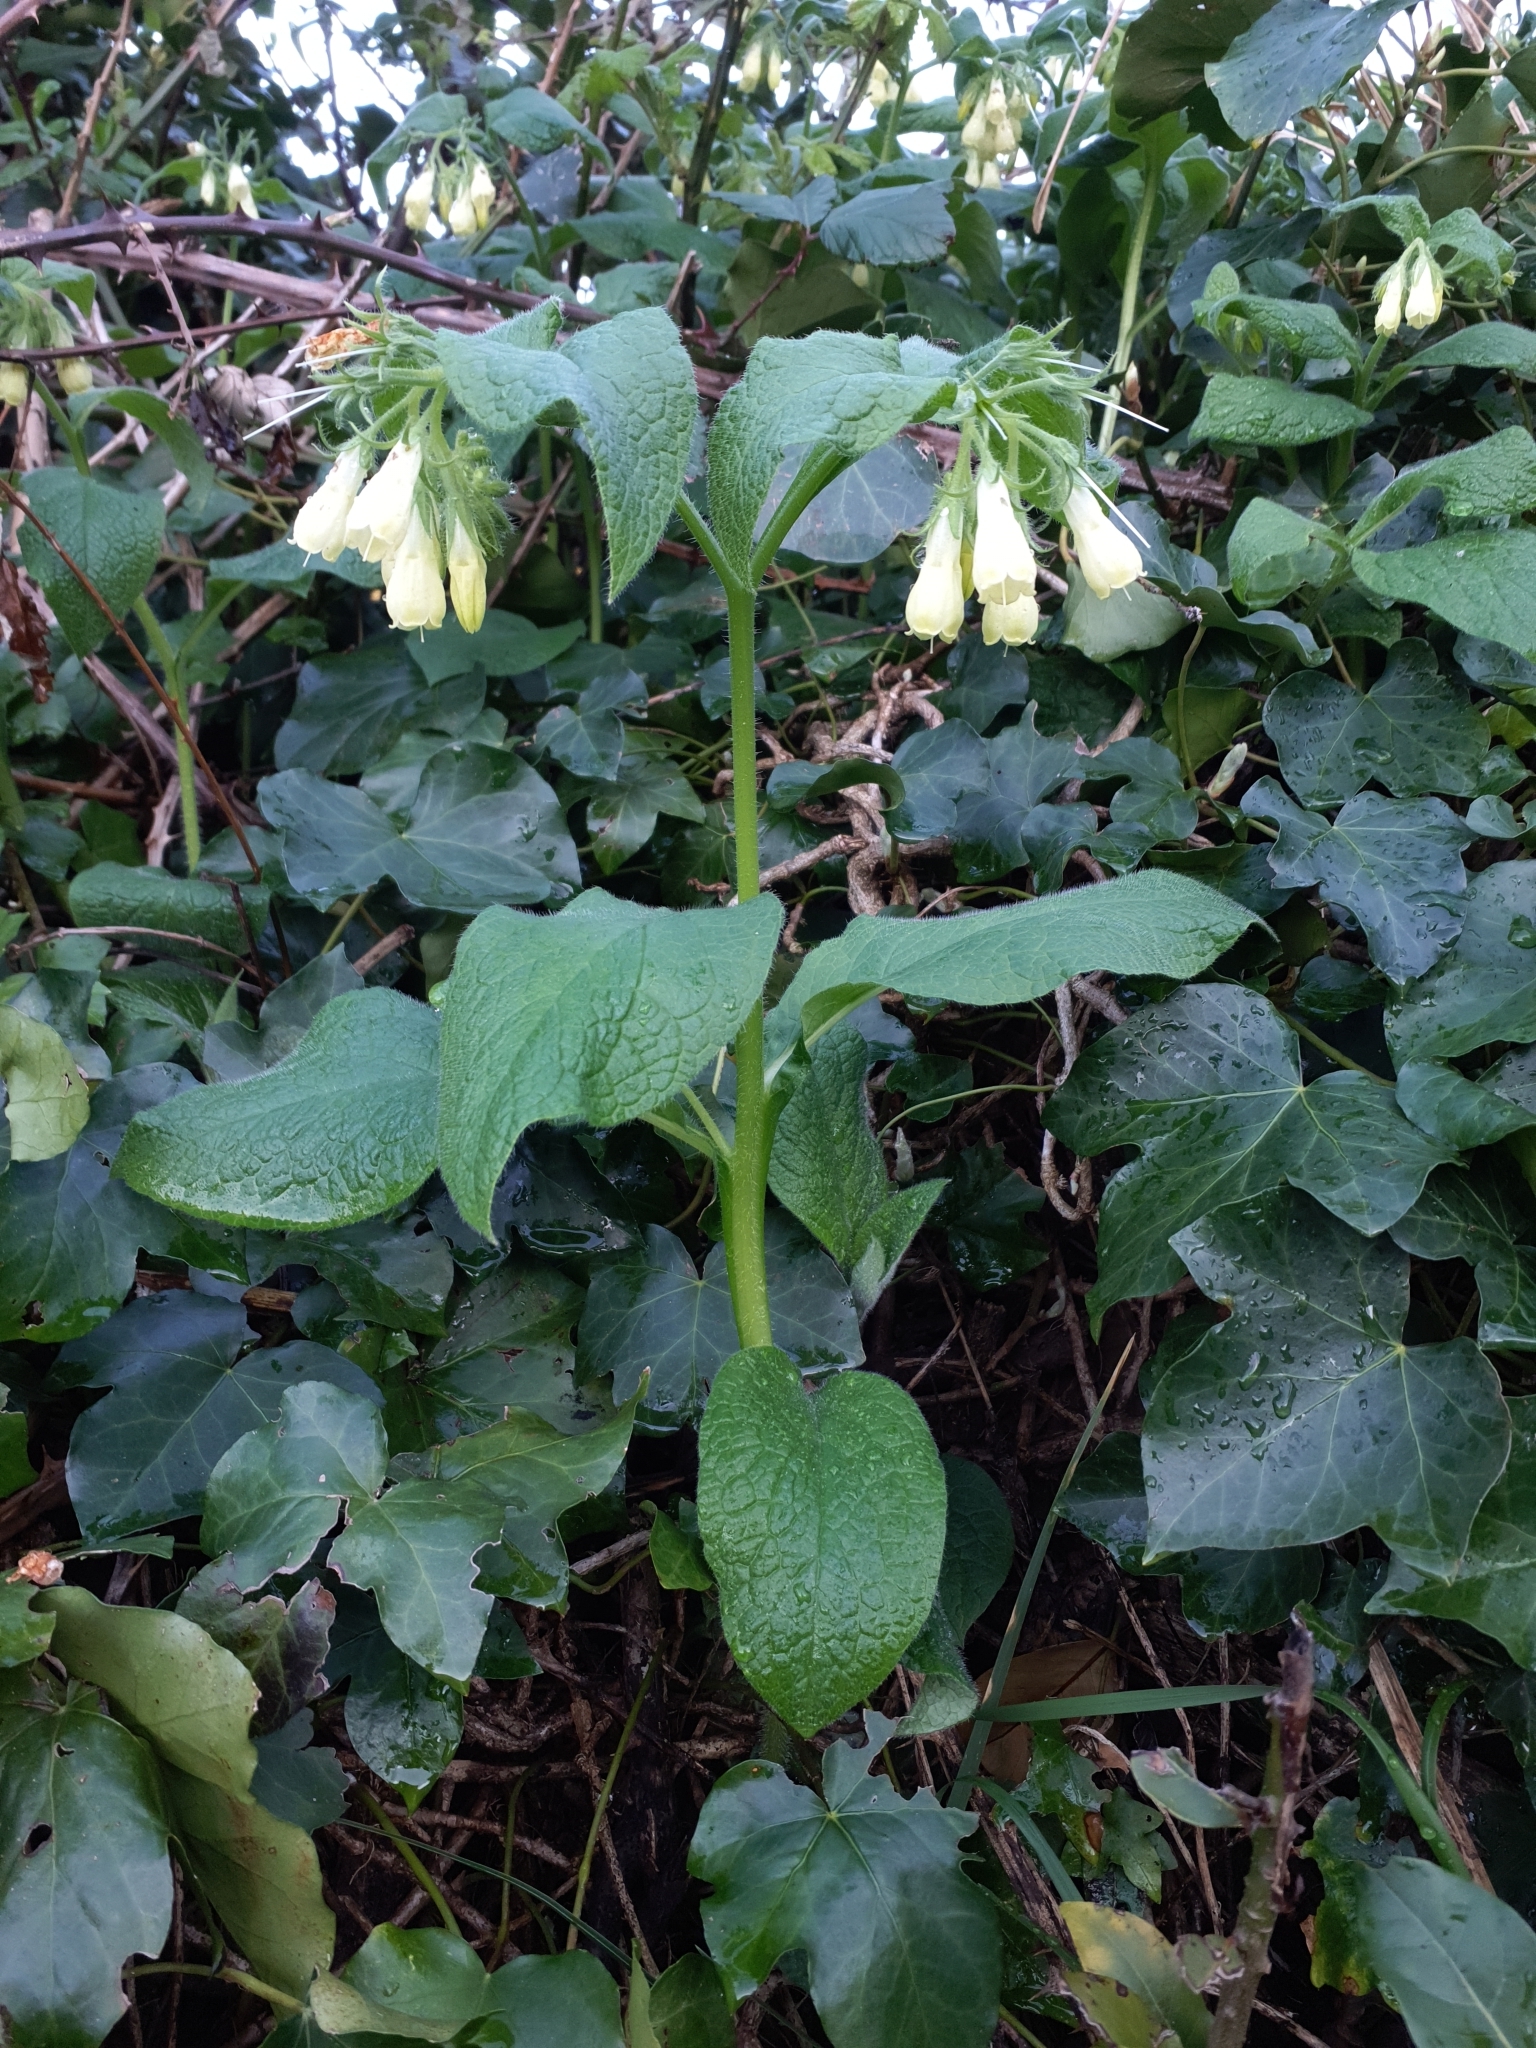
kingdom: Plantae
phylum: Tracheophyta
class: Magnoliopsida
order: Boraginales
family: Boraginaceae
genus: Symphytum
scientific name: Symphytum tuberosum
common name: Tuberous comfrey
